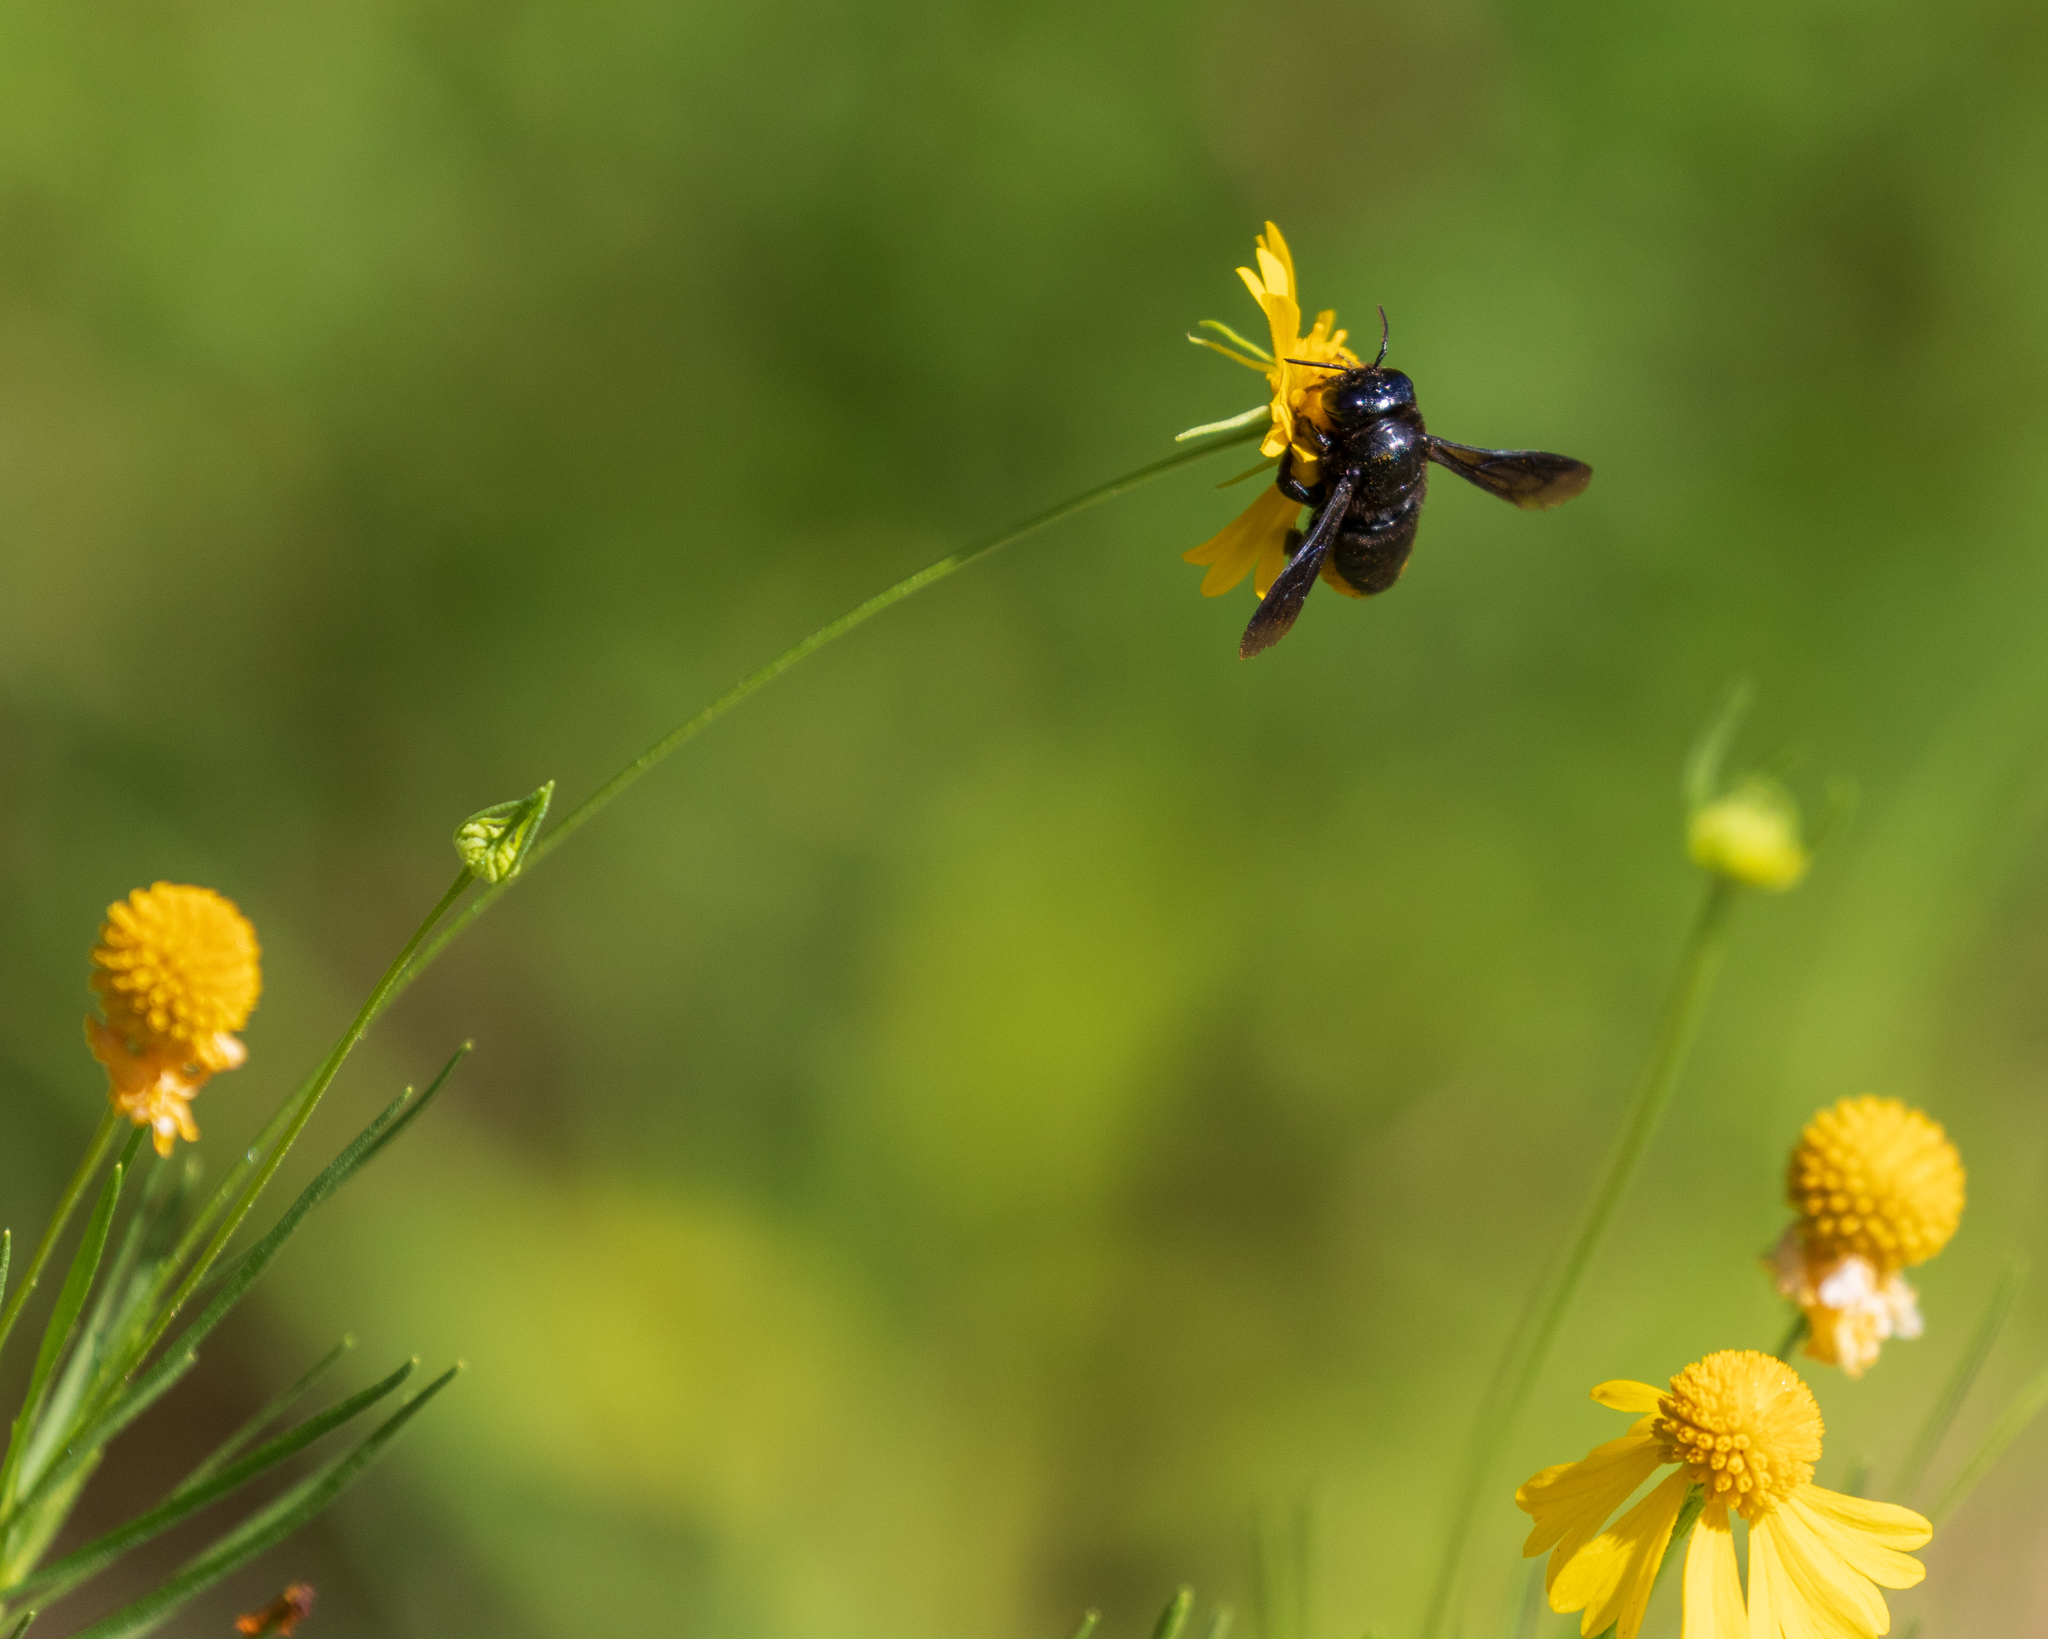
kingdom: Animalia
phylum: Arthropoda
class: Insecta
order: Hymenoptera
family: Megachilidae
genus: Megachile
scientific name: Megachile xylocopoides
